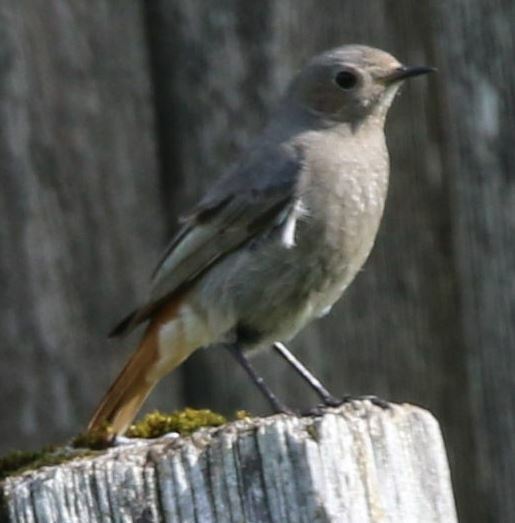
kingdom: Animalia
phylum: Chordata
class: Aves
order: Passeriformes
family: Muscicapidae
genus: Phoenicurus
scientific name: Phoenicurus ochruros
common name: Black redstart
